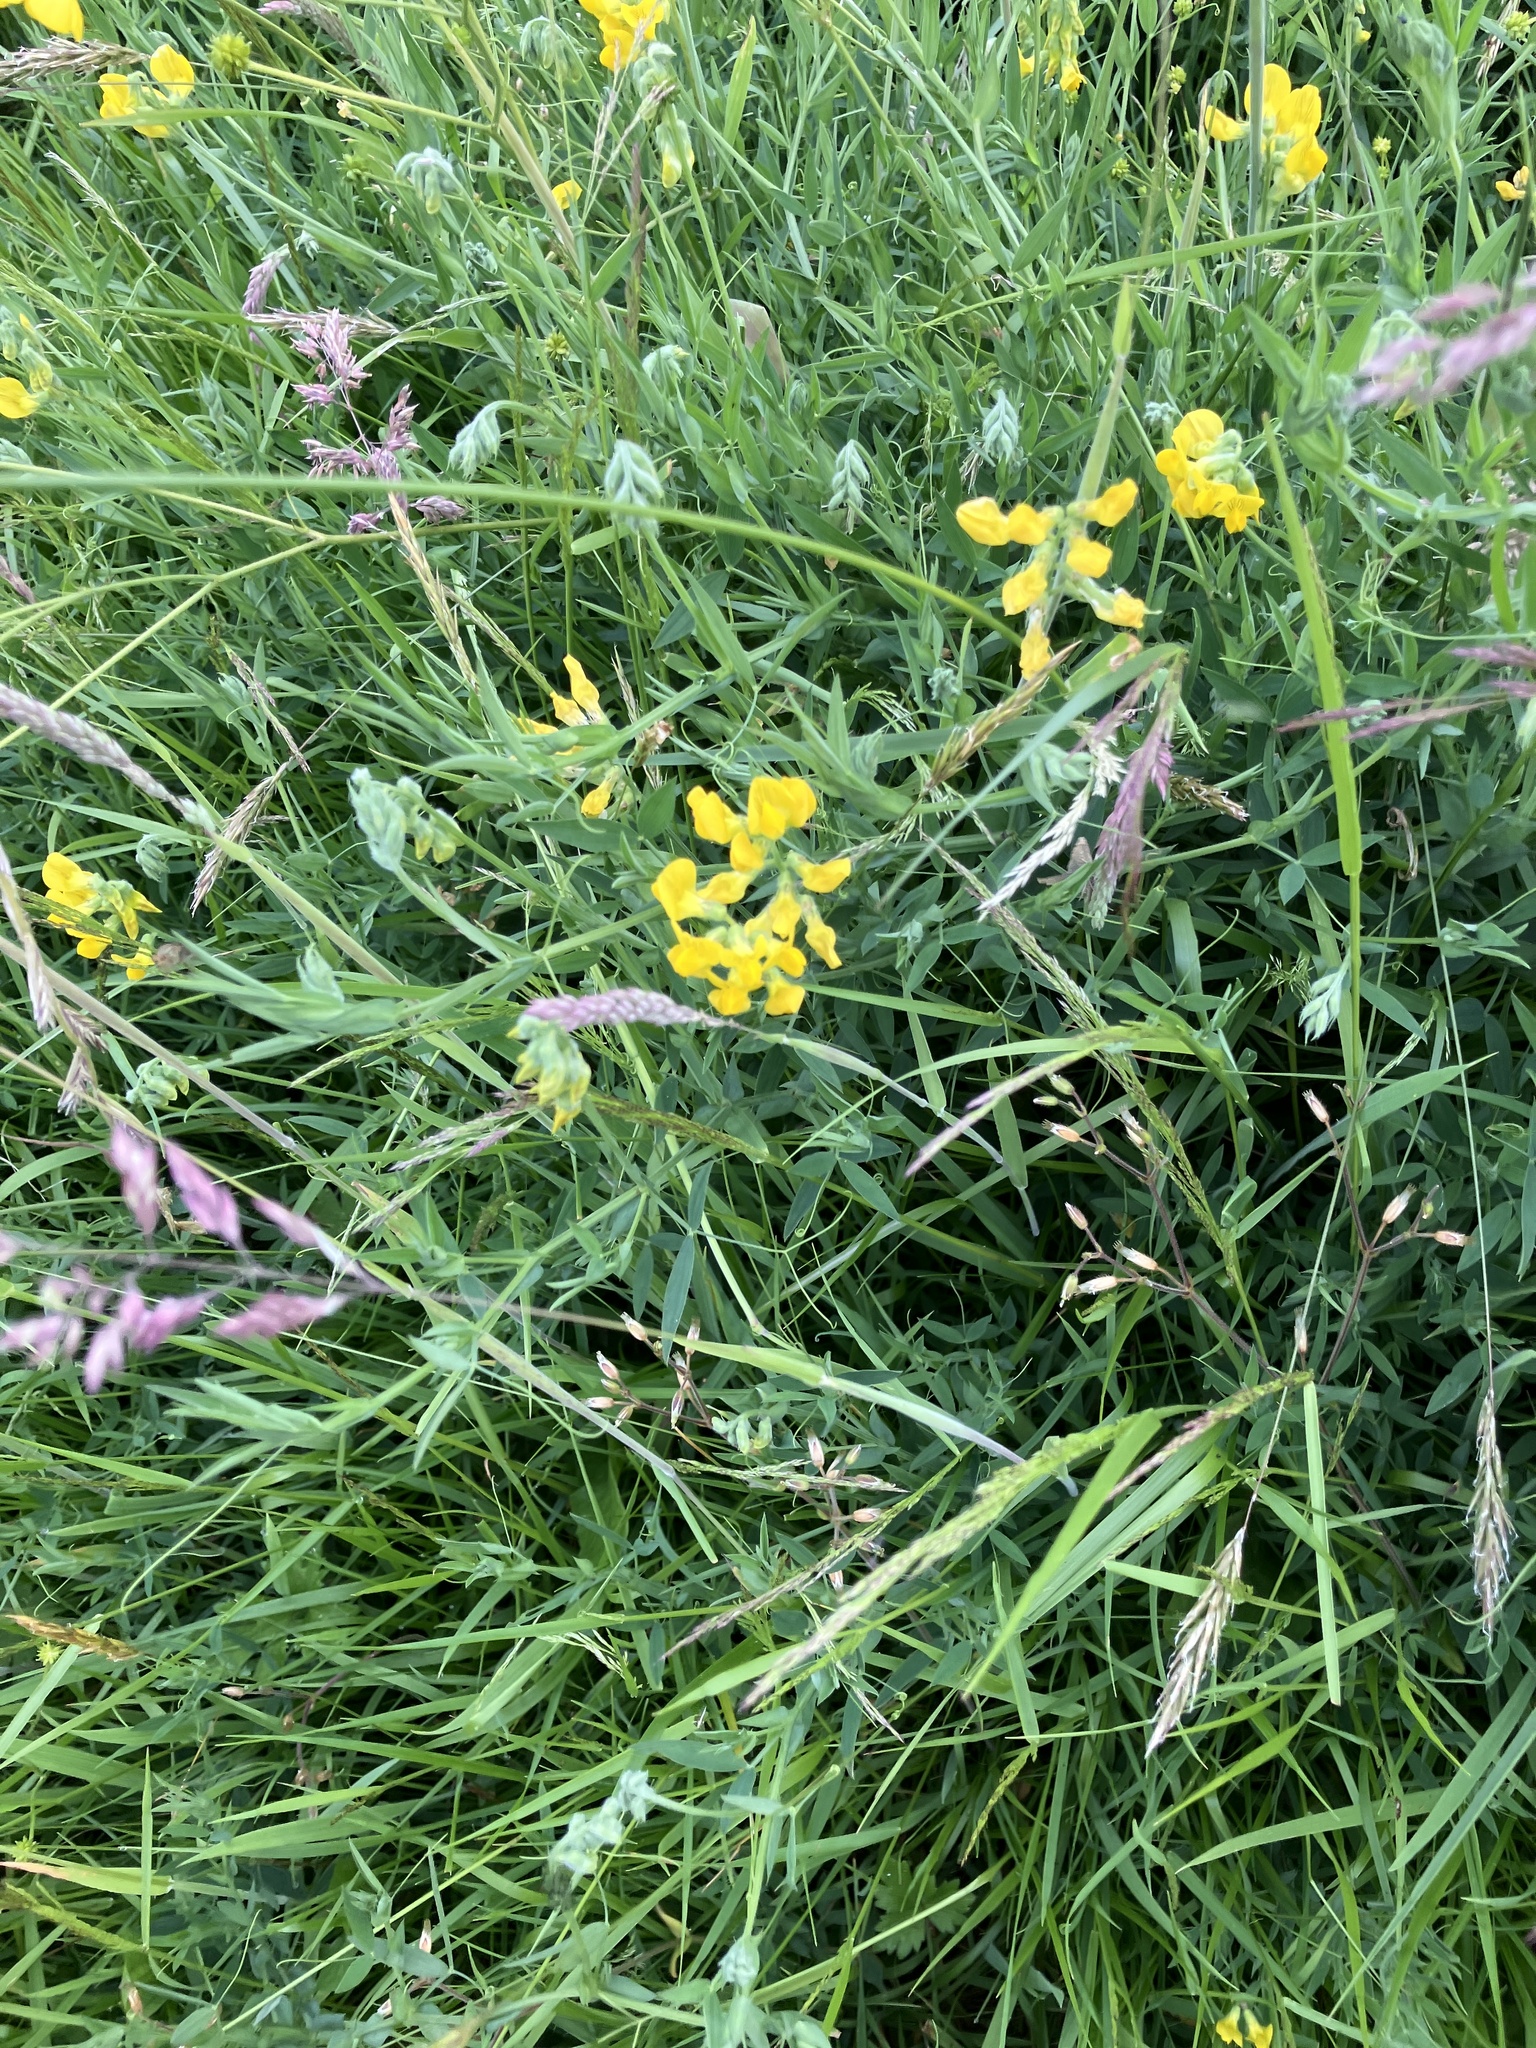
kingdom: Plantae
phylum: Tracheophyta
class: Magnoliopsida
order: Fabales
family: Fabaceae
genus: Lathyrus
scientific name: Lathyrus pratensis
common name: Meadow vetchling
